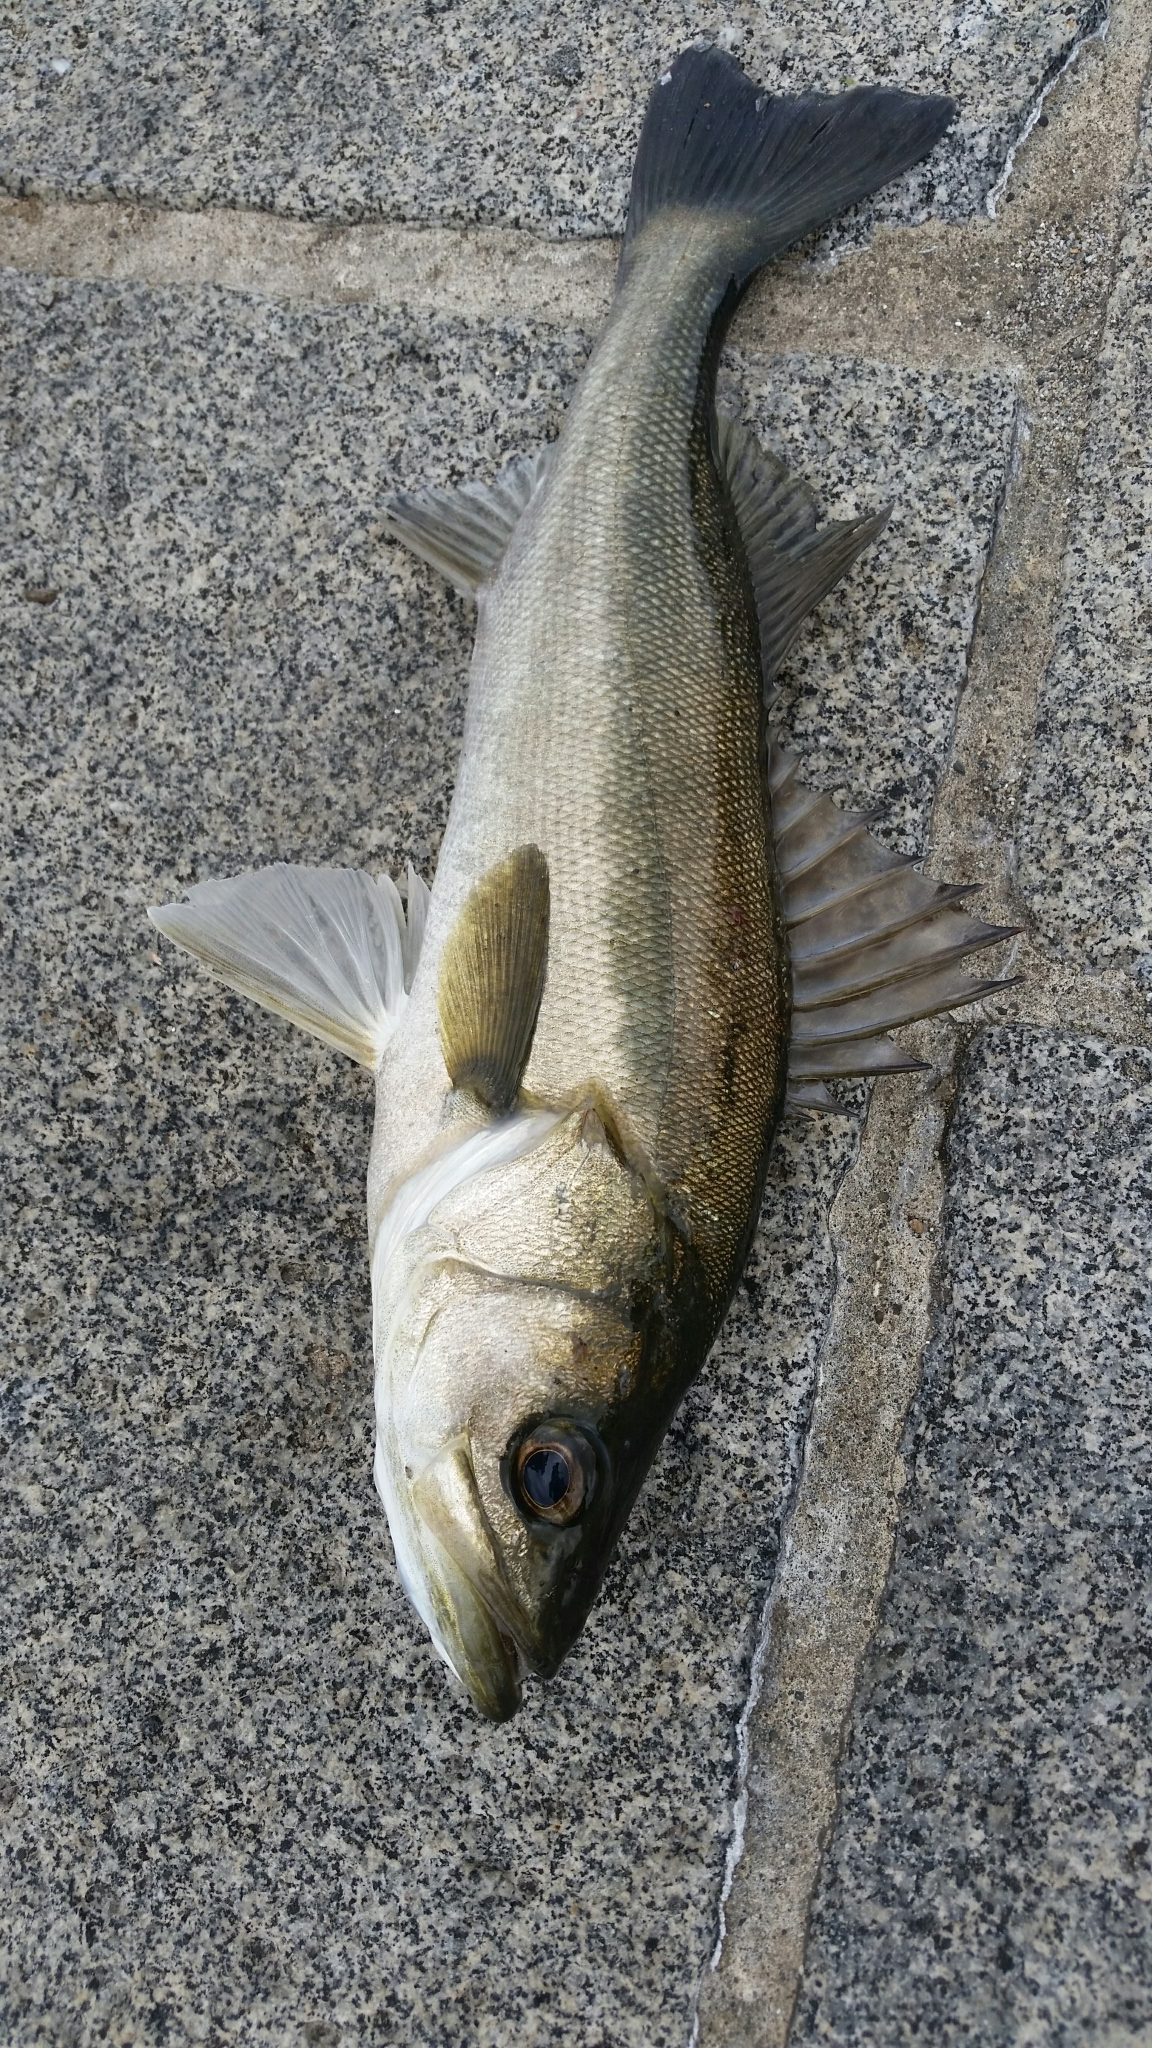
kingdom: Animalia
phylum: Chordata
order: Perciformes
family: Lateolabracidae
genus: Lateolabrax
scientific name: Lateolabrax japonicus
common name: Japan sea bass
